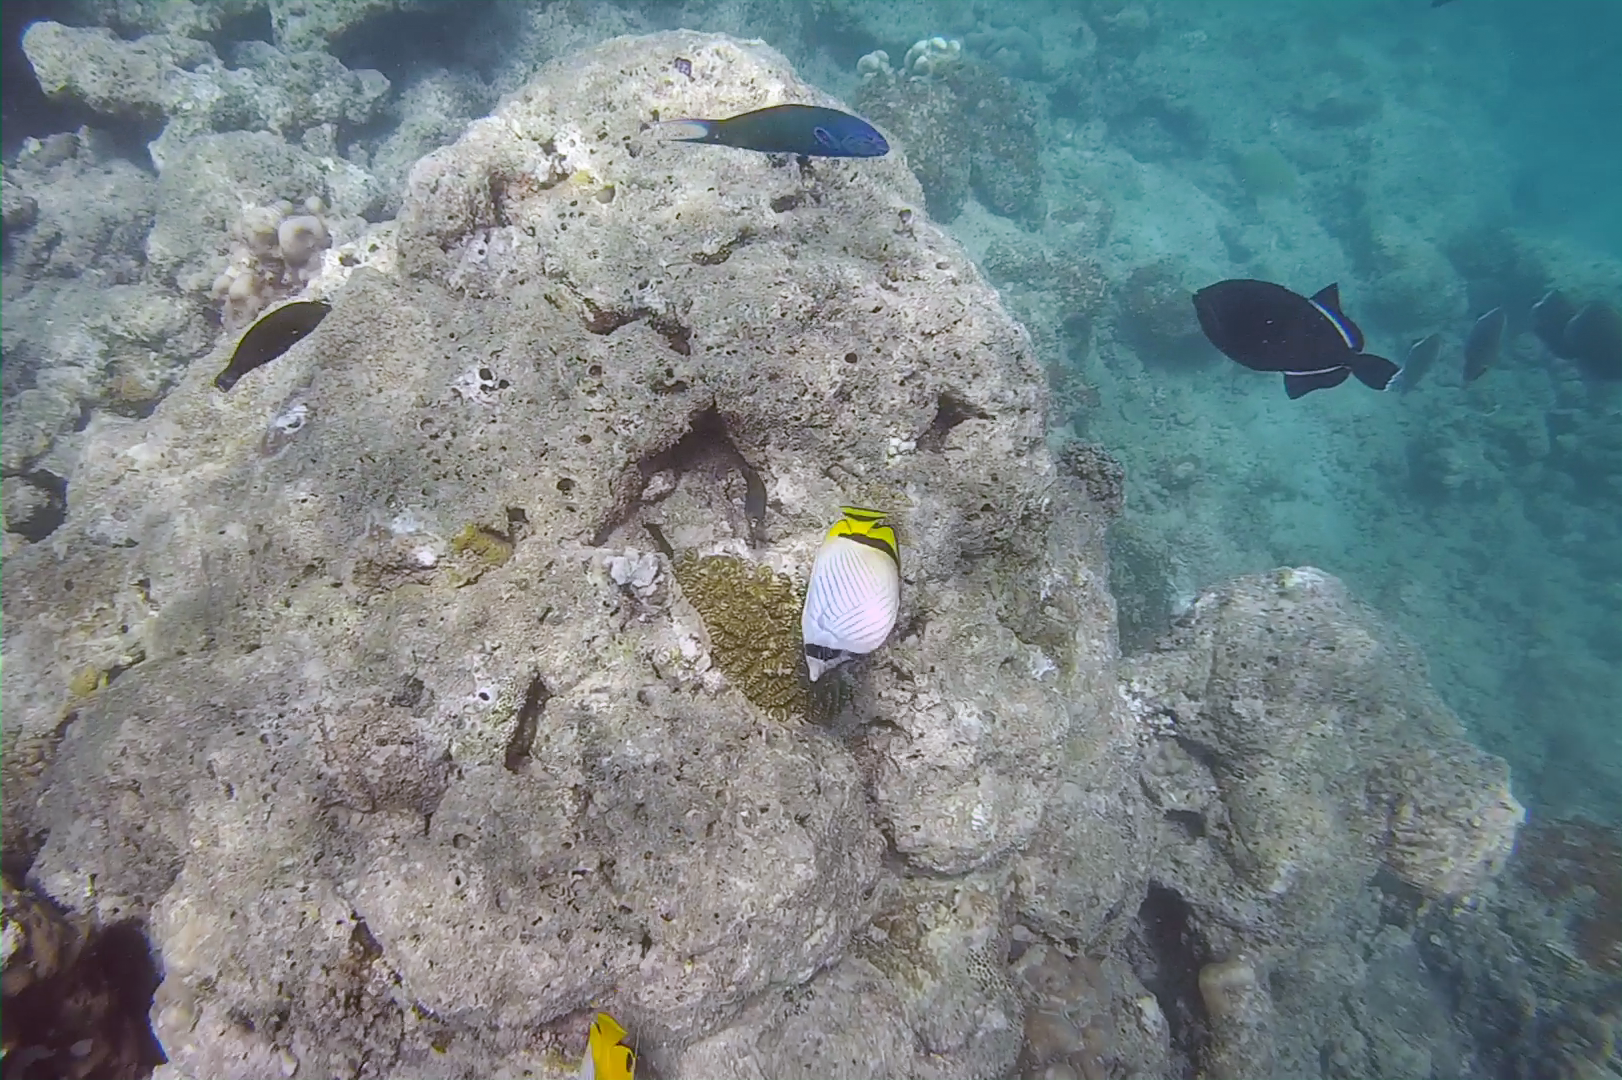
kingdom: Animalia
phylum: Chordata
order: Perciformes
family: Chaetodontidae
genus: Chaetodon
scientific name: Chaetodon vagabundus
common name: Vagabond butterflyfish
